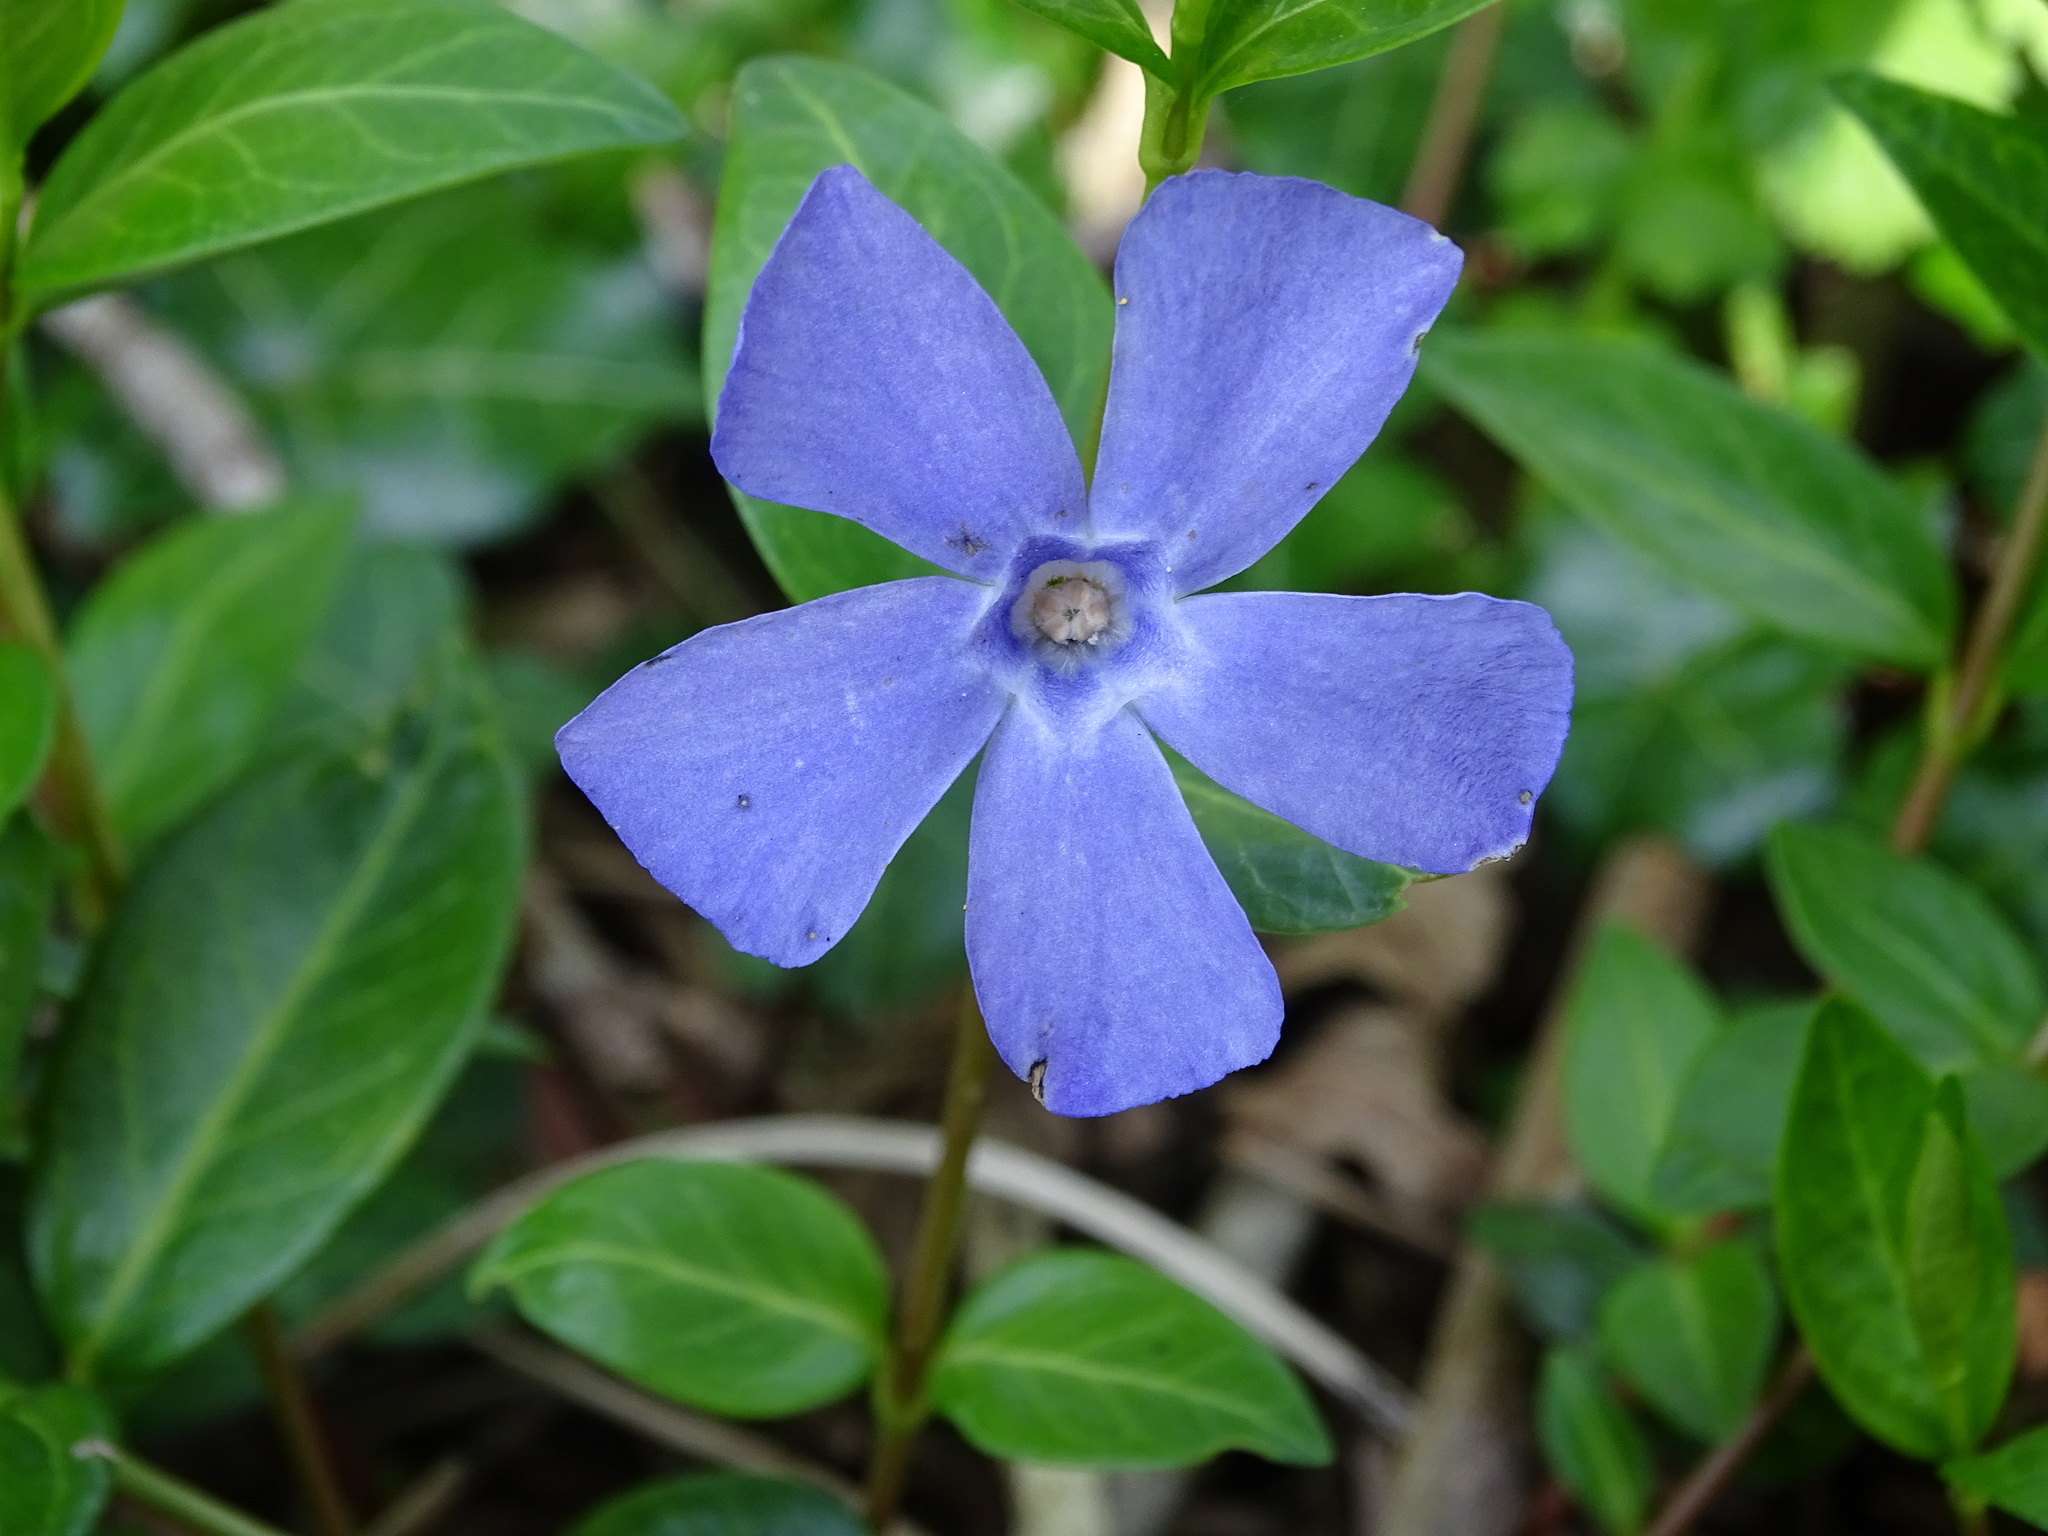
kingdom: Plantae
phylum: Tracheophyta
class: Magnoliopsida
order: Gentianales
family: Apocynaceae
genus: Vinca
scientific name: Vinca minor
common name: Lesser periwinkle
